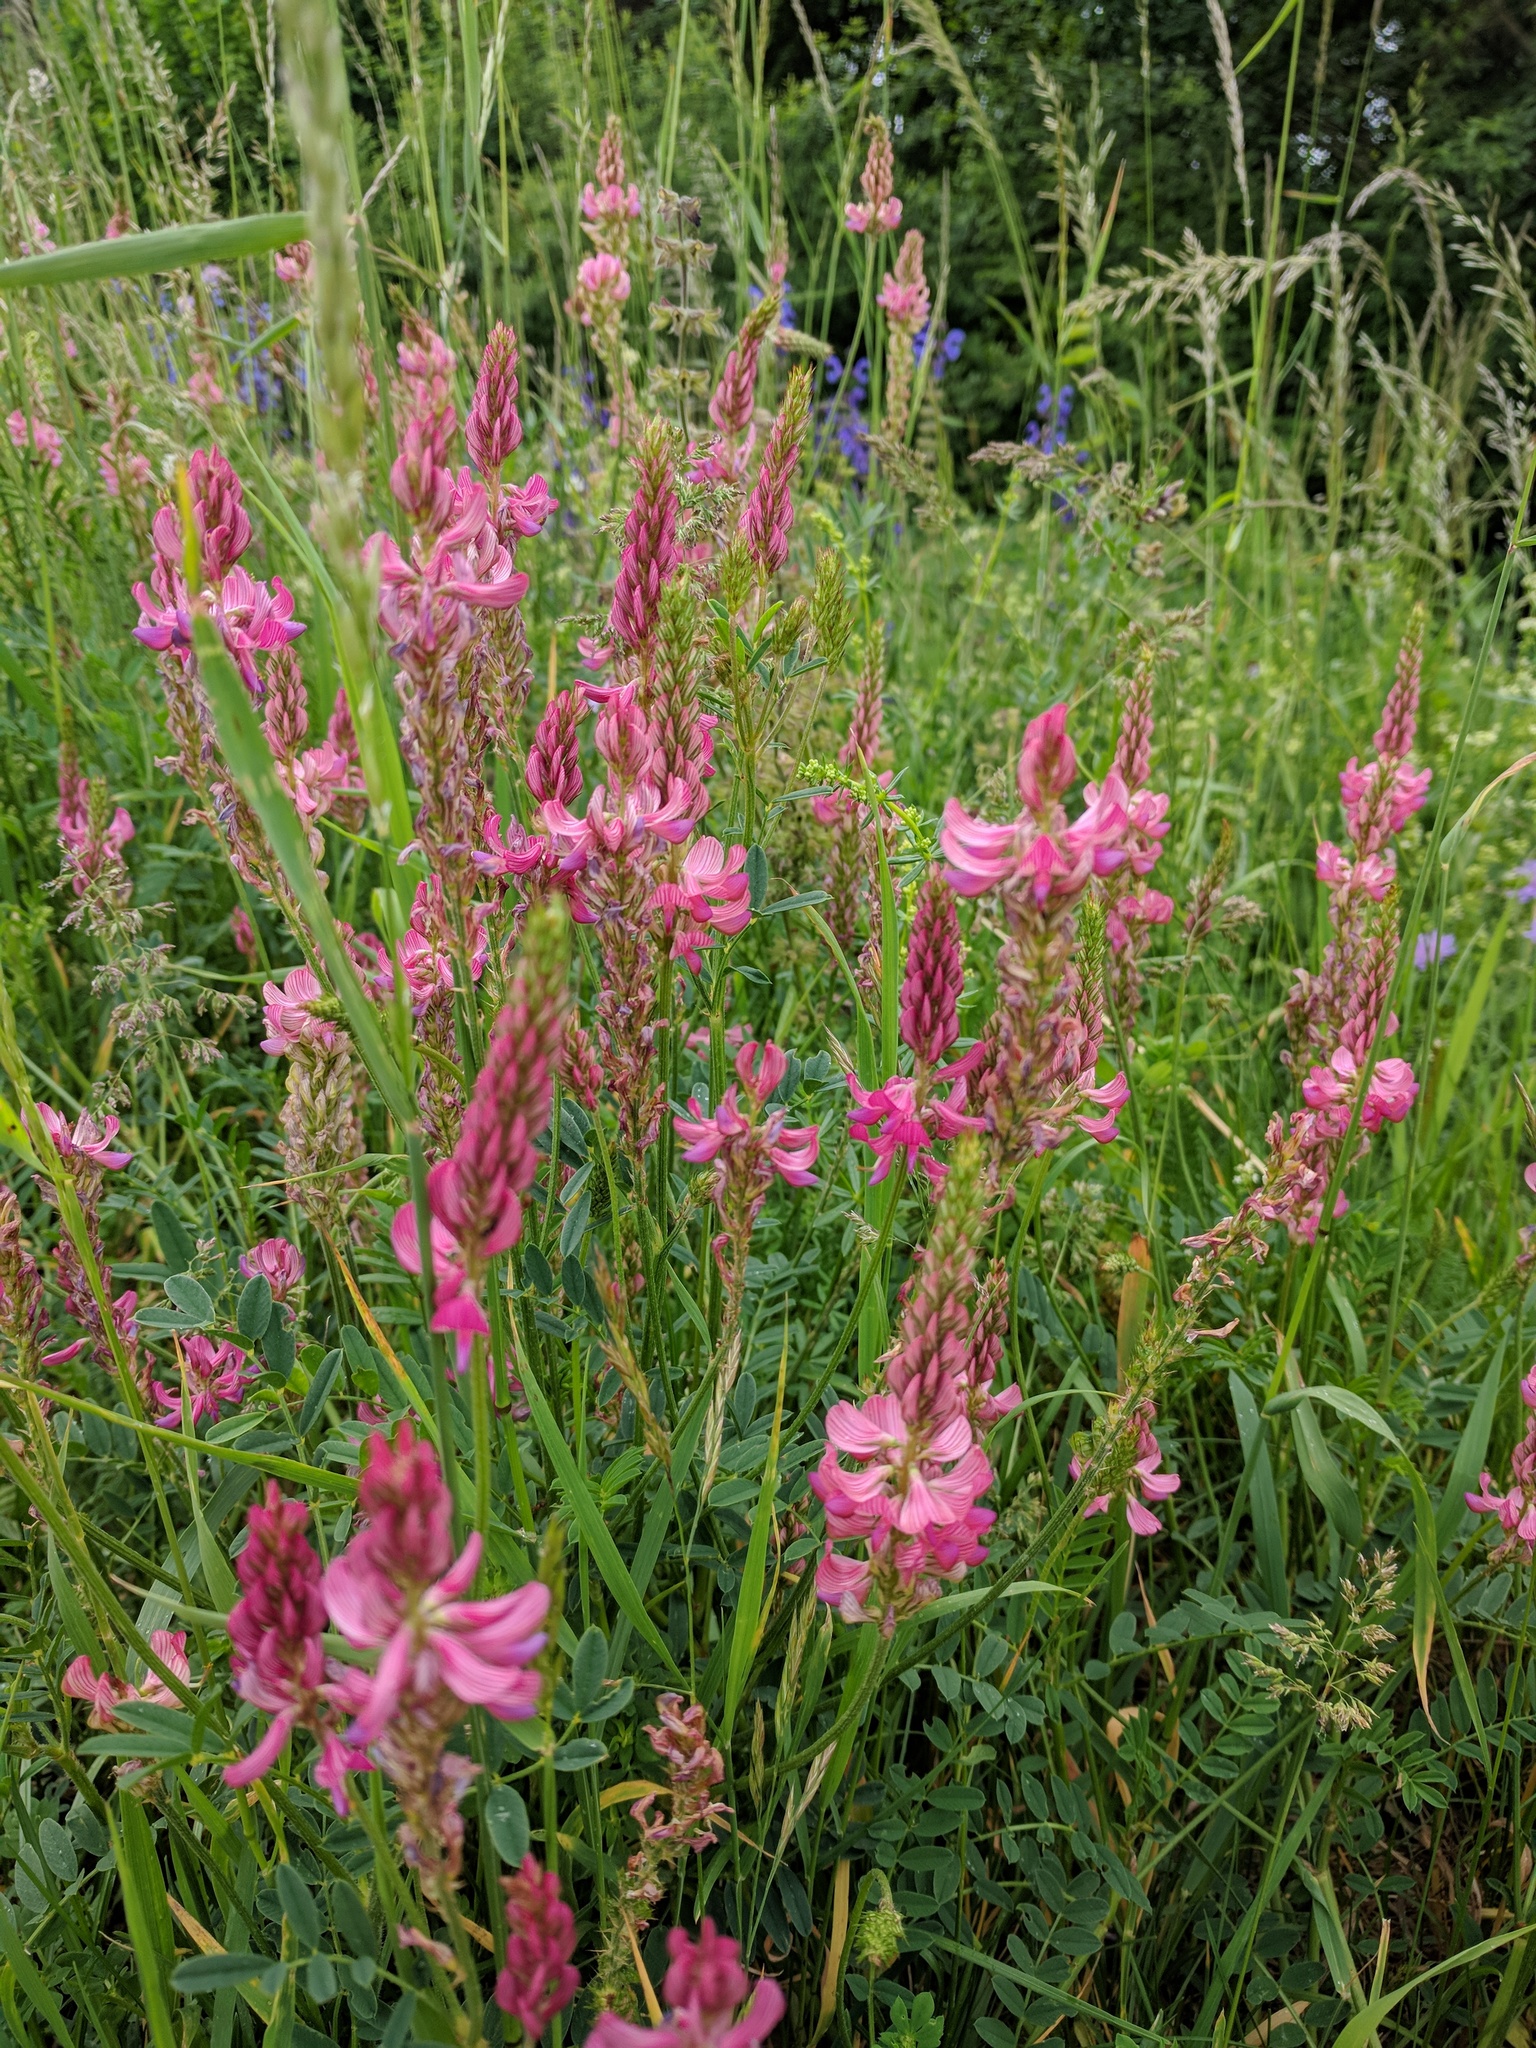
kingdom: Plantae
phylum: Tracheophyta
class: Magnoliopsida
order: Fabales
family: Fabaceae
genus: Onobrychis
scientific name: Onobrychis viciifolia
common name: Sainfoin
